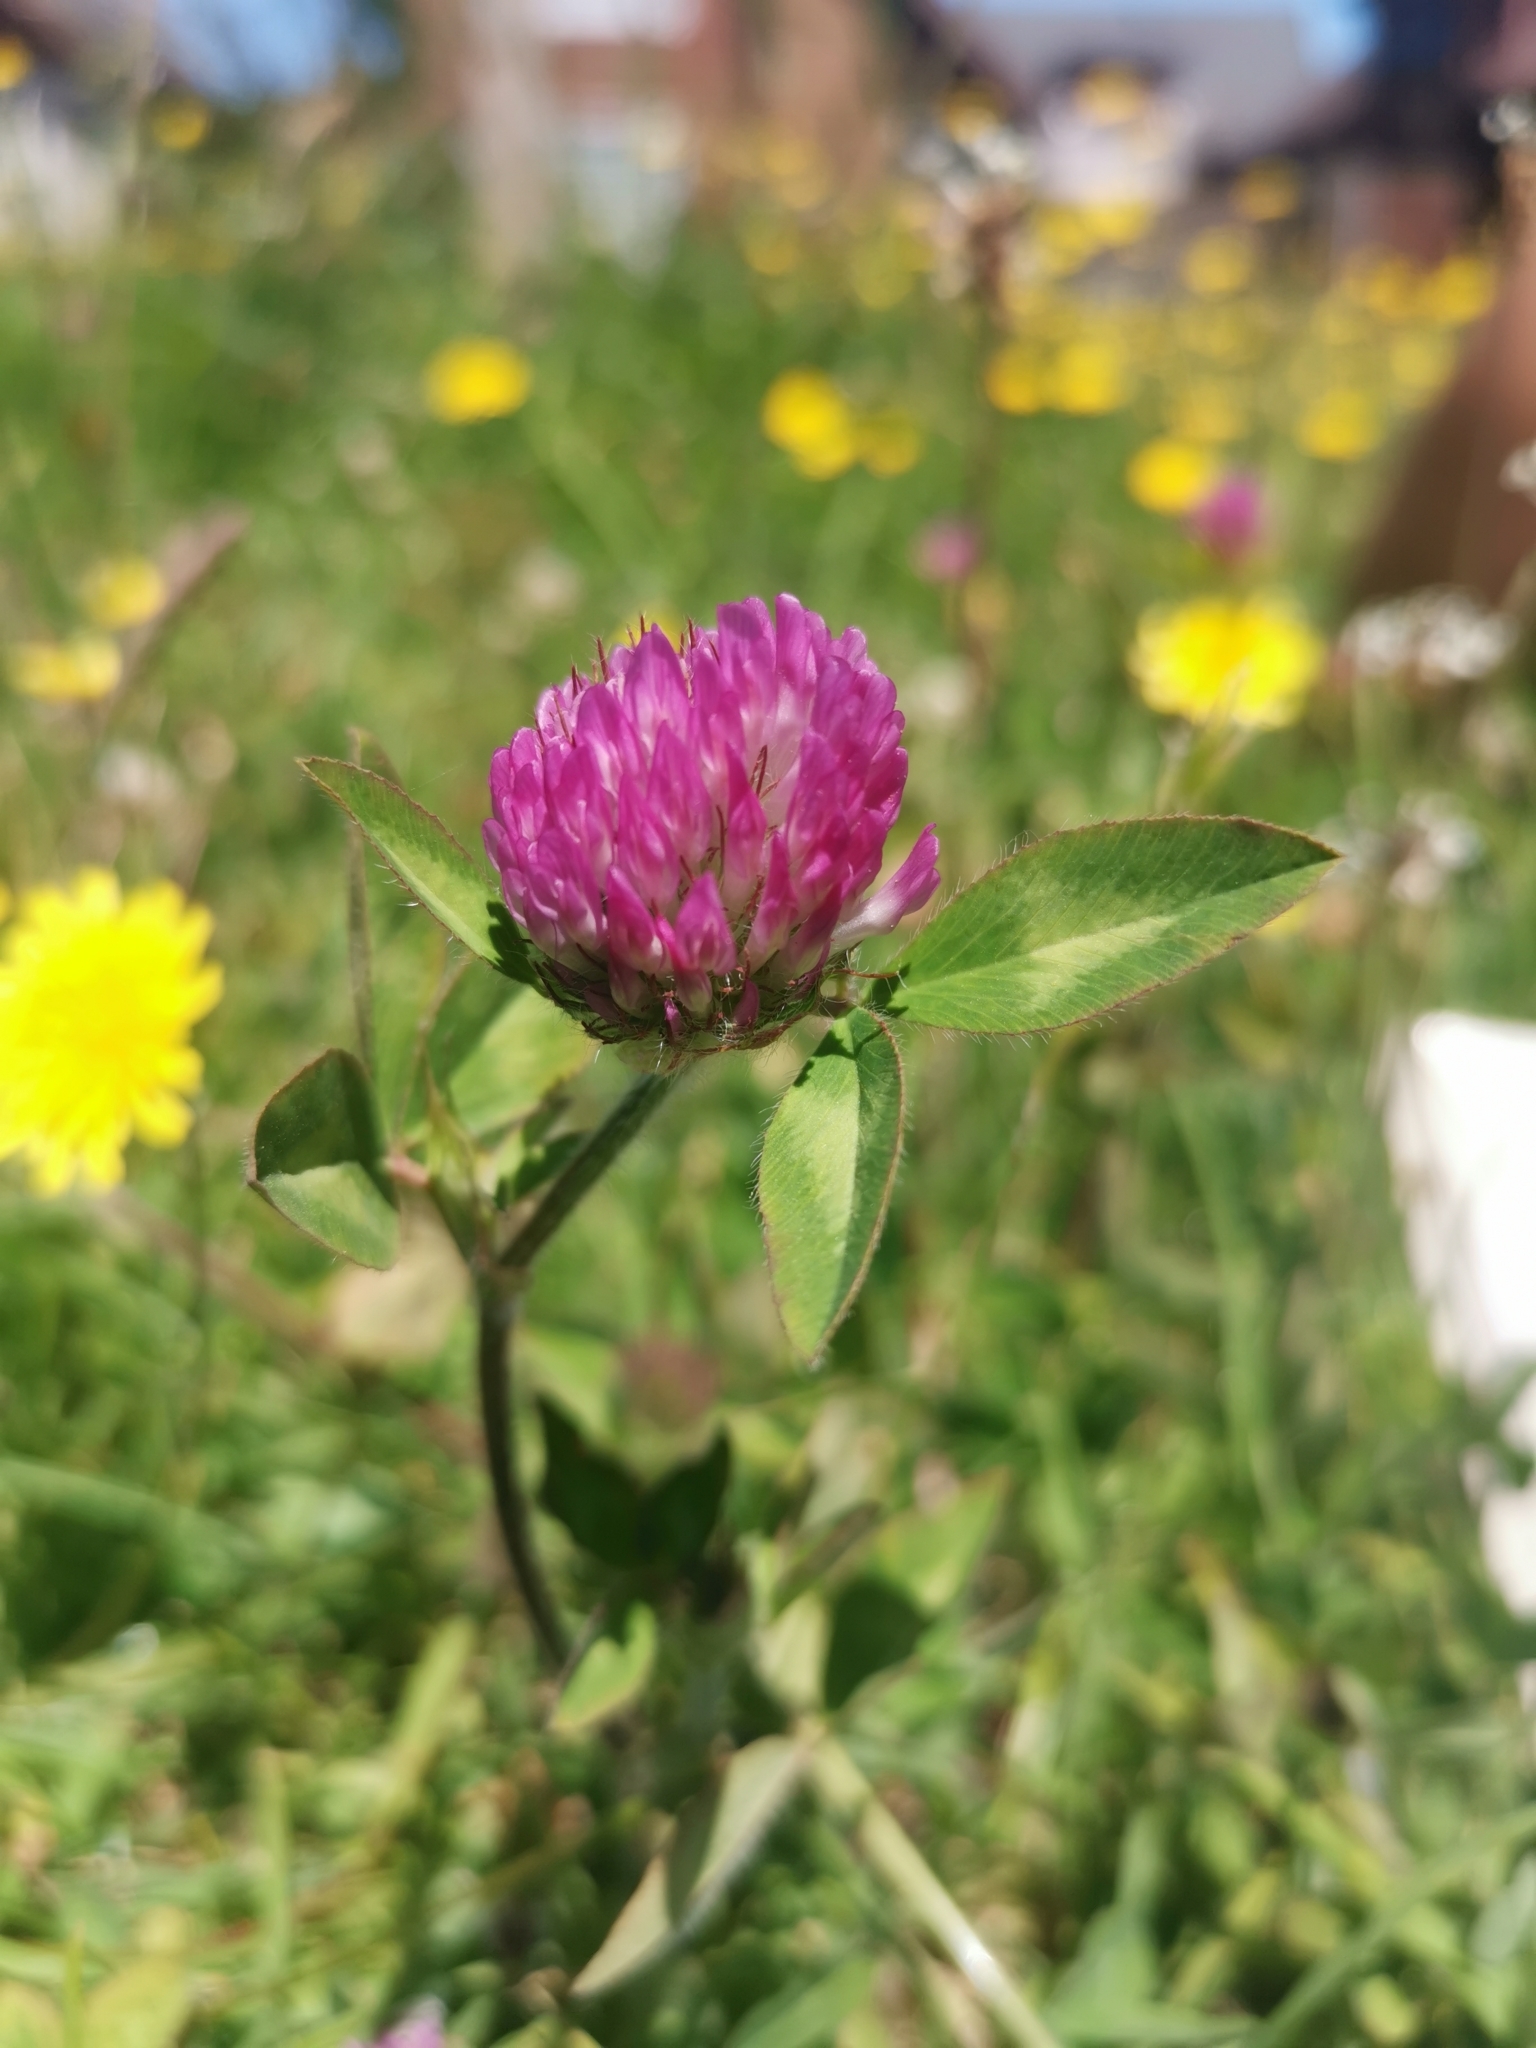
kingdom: Plantae
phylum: Tracheophyta
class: Magnoliopsida
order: Fabales
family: Fabaceae
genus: Trifolium
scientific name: Trifolium pratense
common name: Red clover
